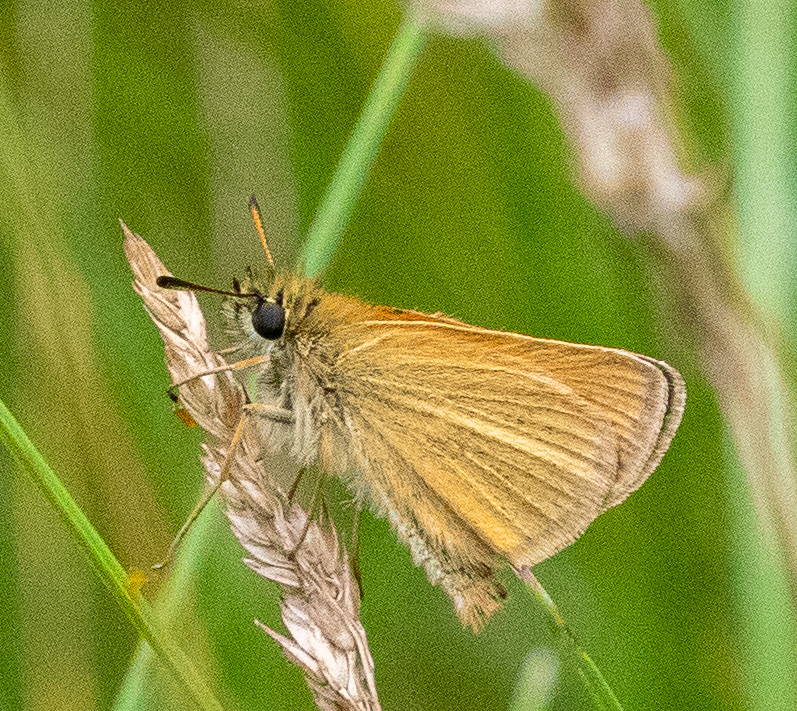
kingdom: Animalia
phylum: Arthropoda
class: Insecta
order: Lepidoptera
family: Hesperiidae
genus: Thymelicus
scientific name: Thymelicus lineola
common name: Essex skipper
